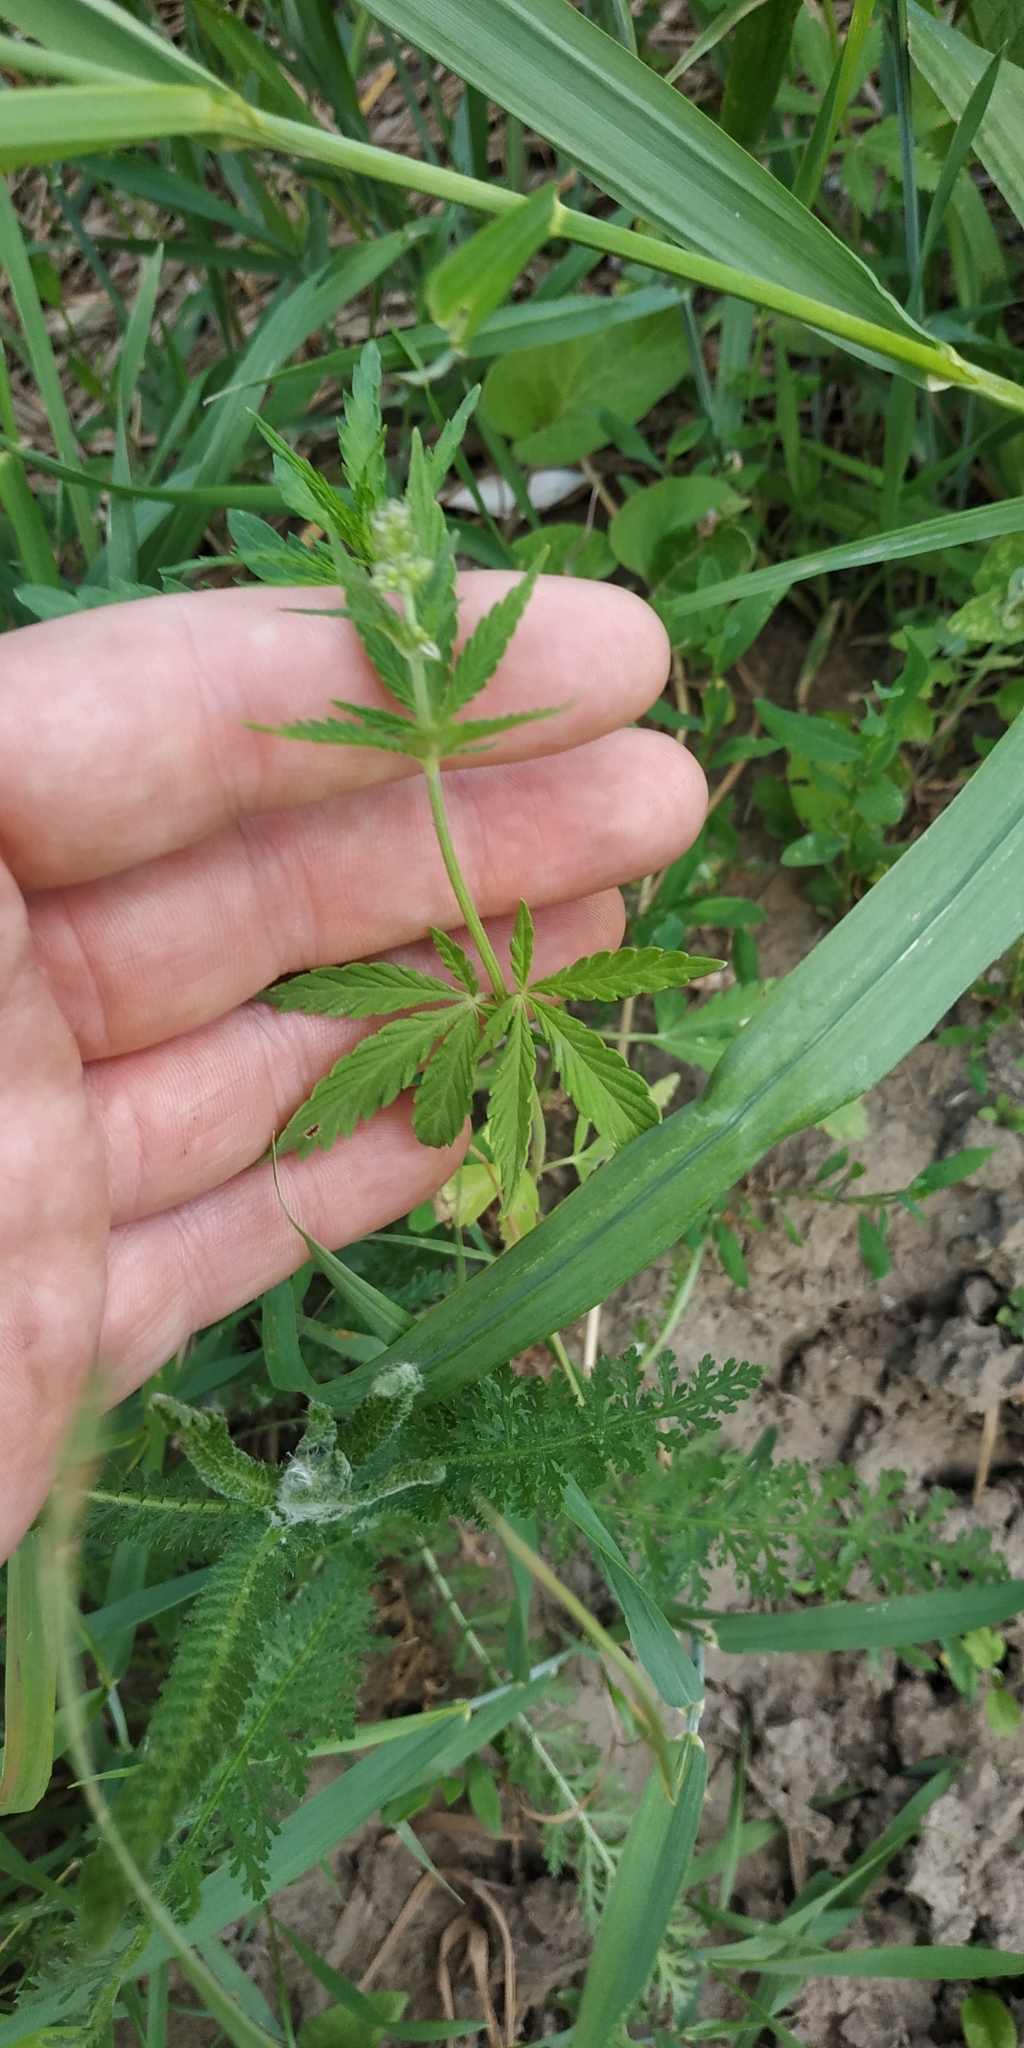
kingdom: Plantae
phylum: Tracheophyta
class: Magnoliopsida
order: Rosales
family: Cannabaceae
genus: Cannabis
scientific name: Cannabis sativa
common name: Hemp
